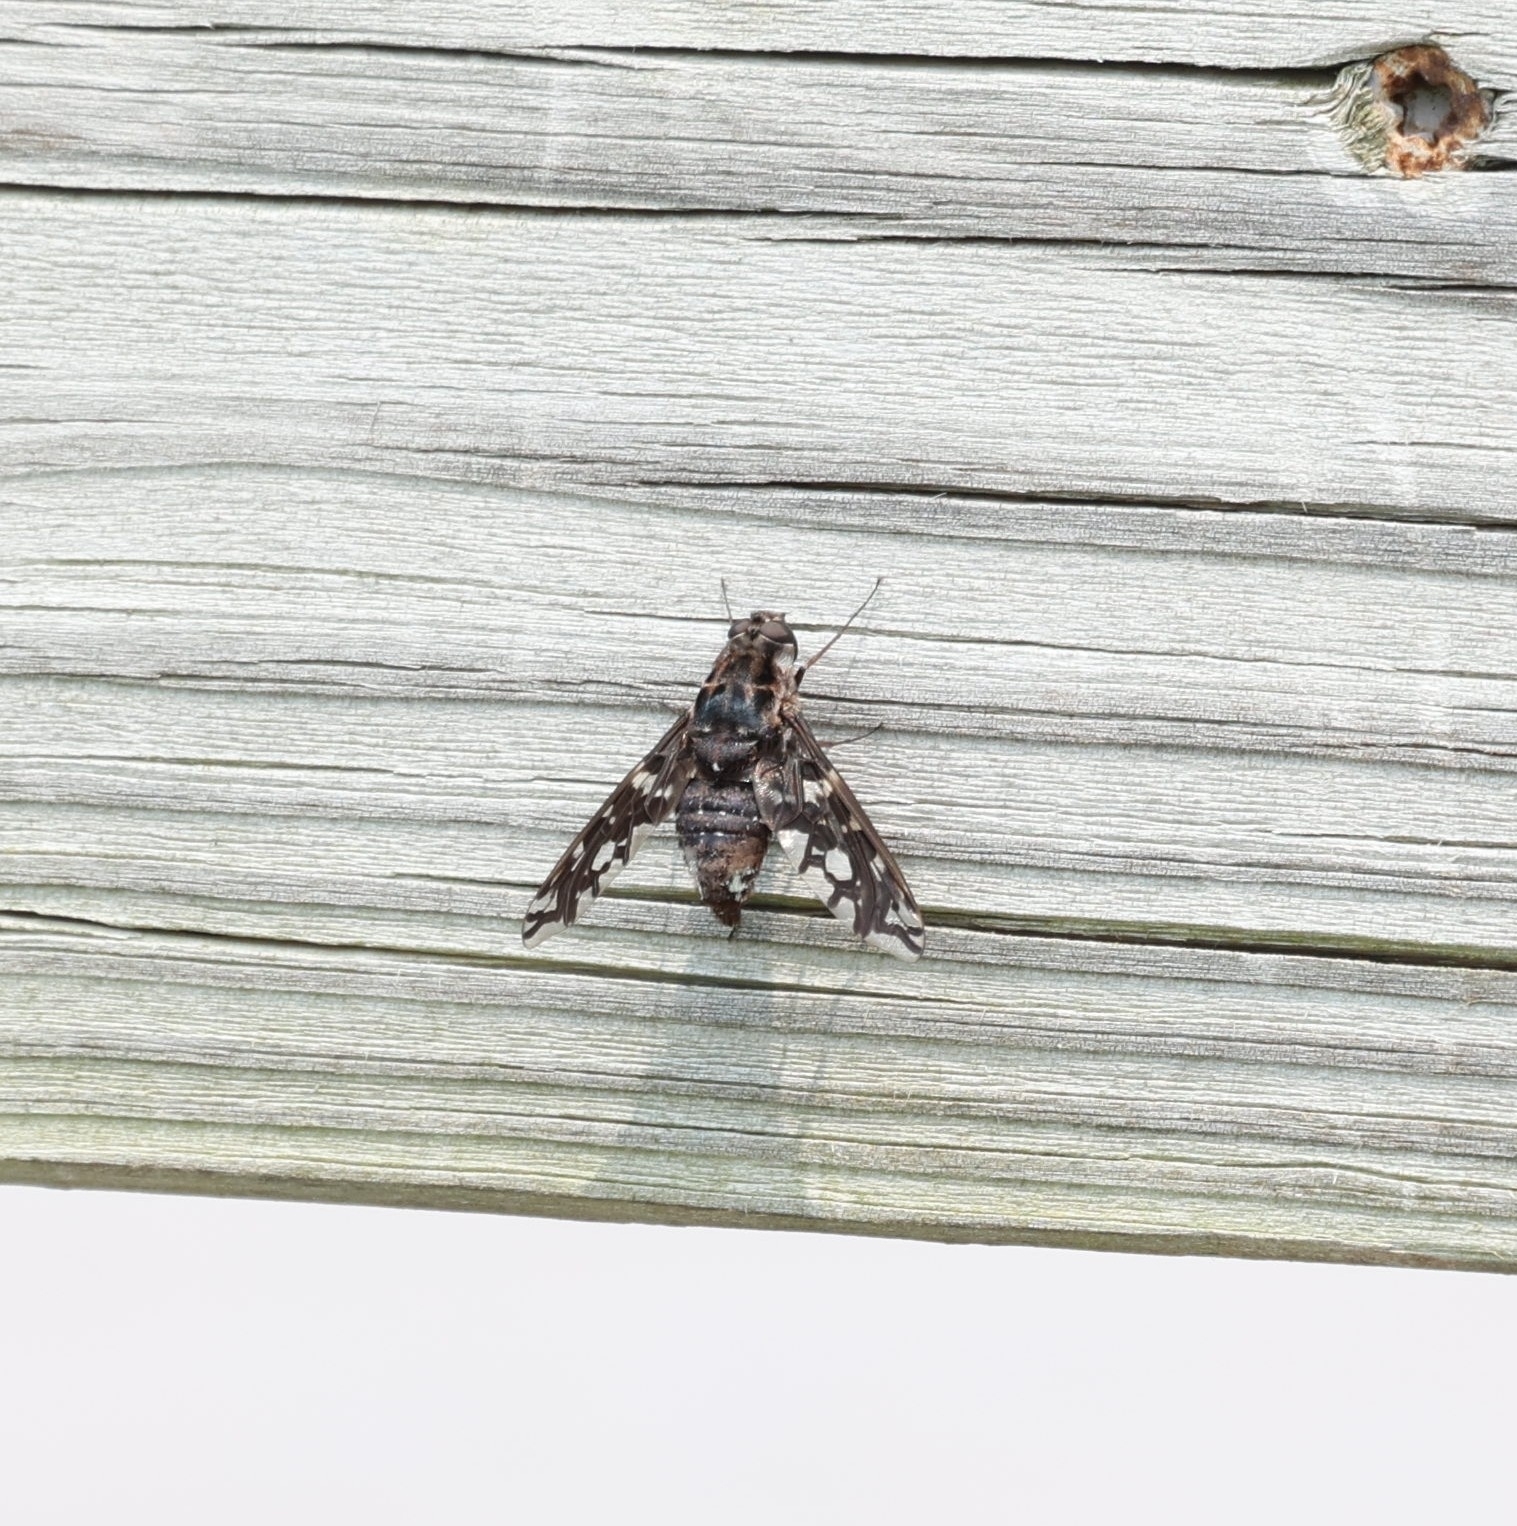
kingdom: Animalia
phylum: Arthropoda
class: Insecta
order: Diptera
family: Bombyliidae
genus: Xenox
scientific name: Xenox tigrinus
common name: Tiger bee fly
